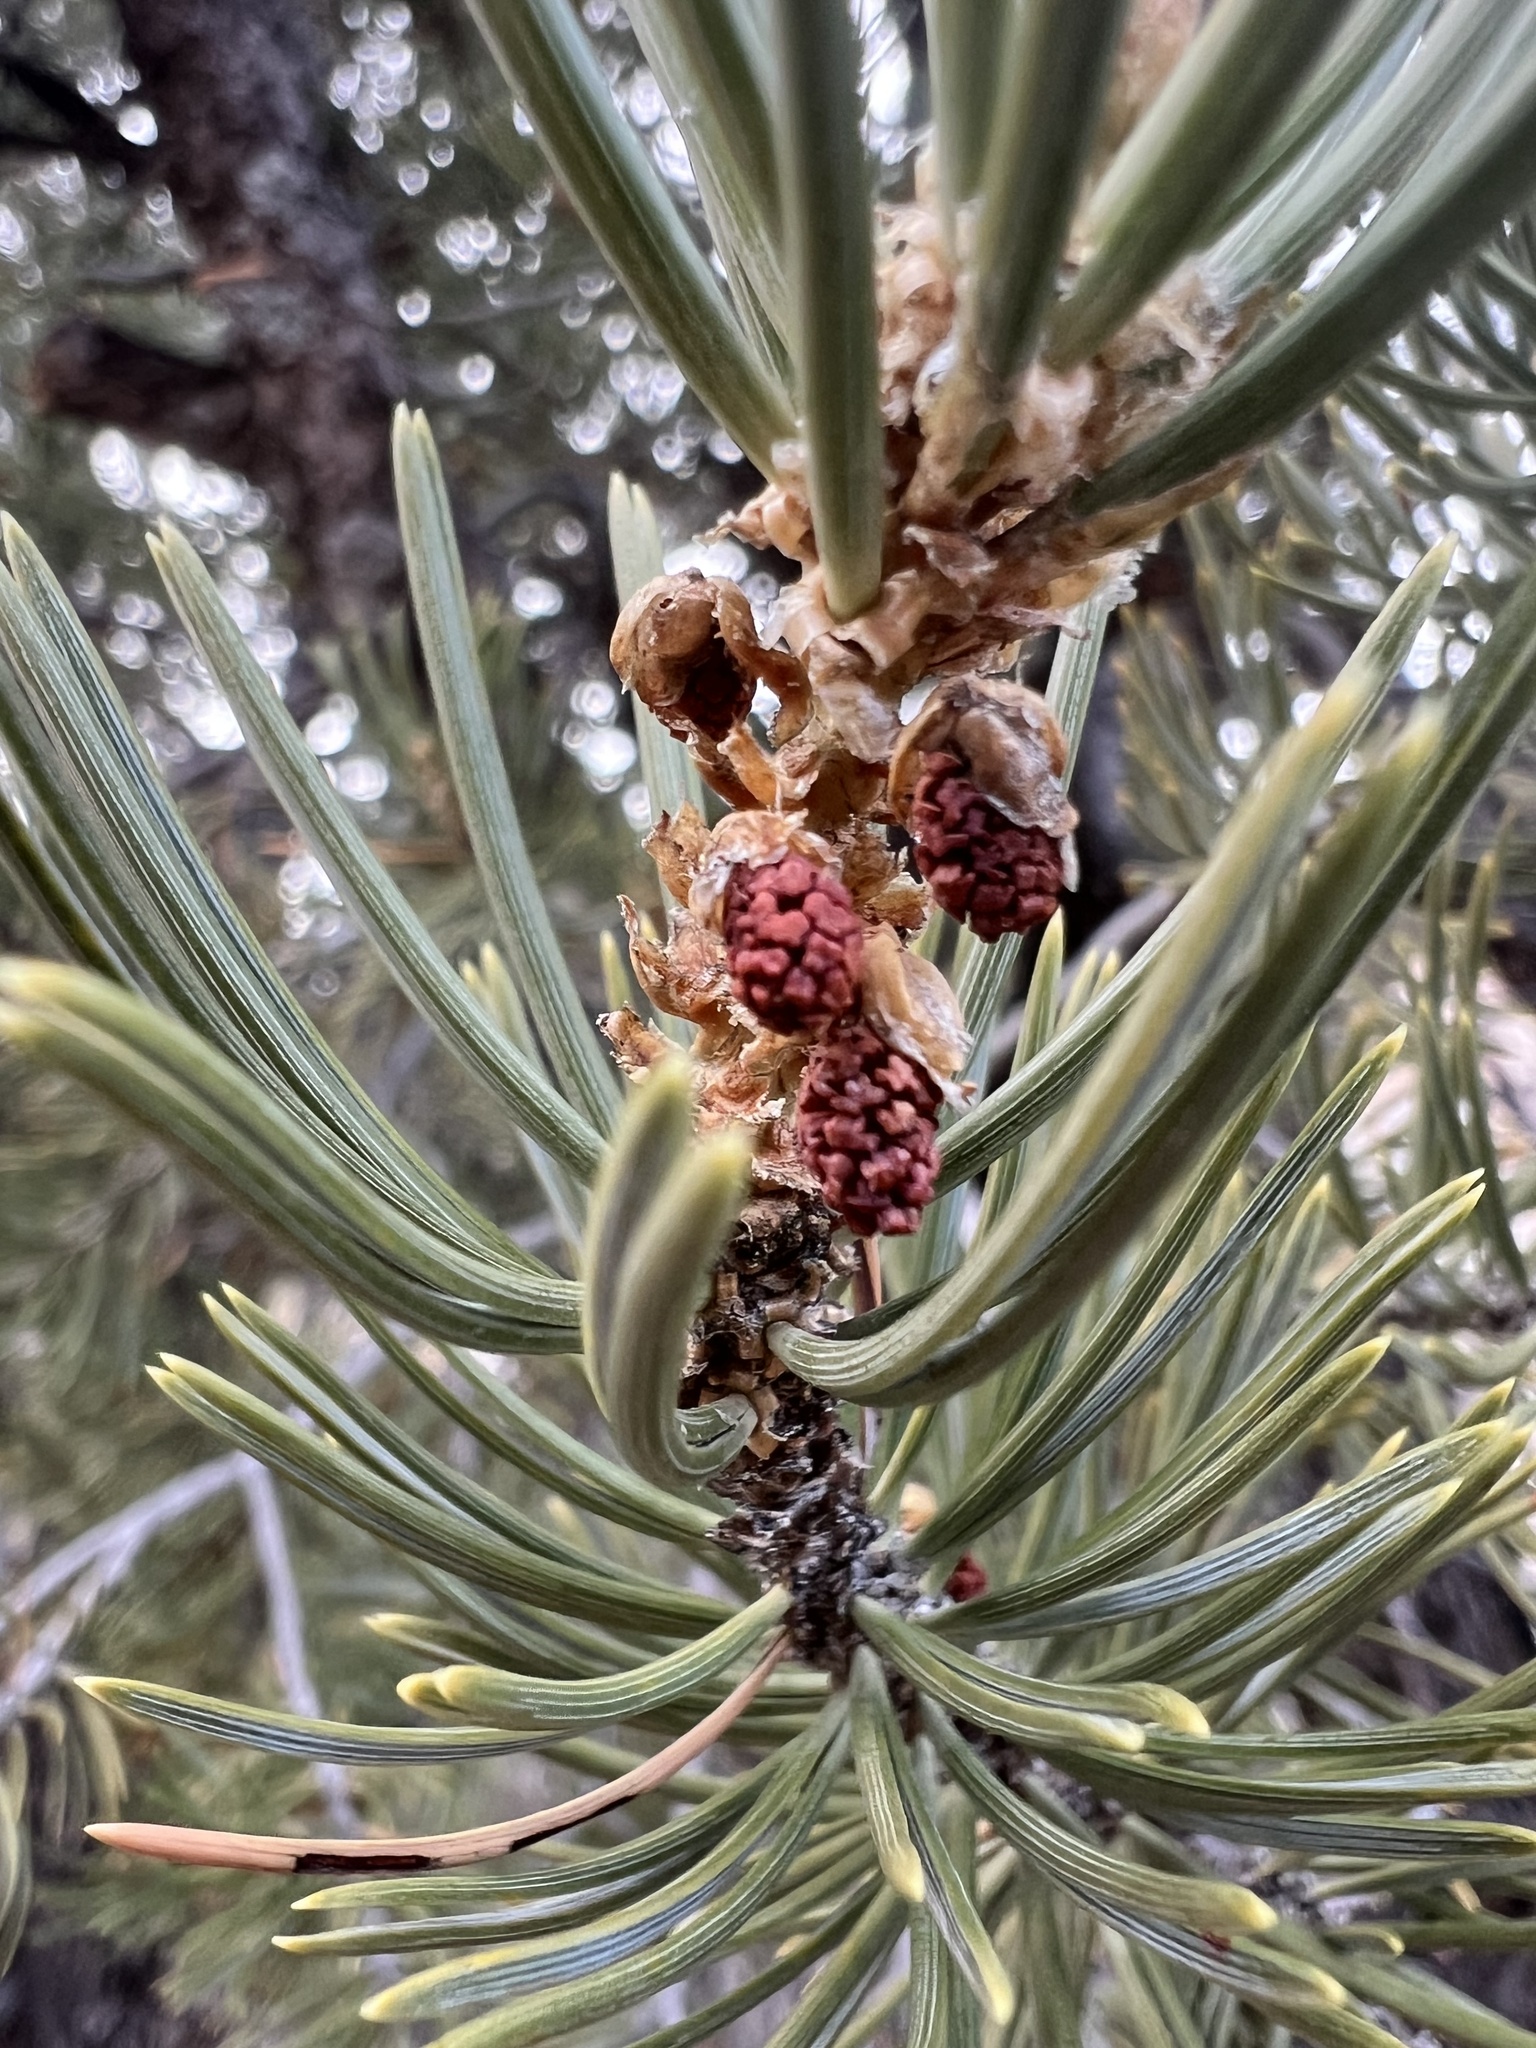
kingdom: Plantae
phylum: Tracheophyta
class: Pinopsida
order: Pinales
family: Pinaceae
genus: Pinus
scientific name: Pinus edulis
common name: Colorado pinyon
